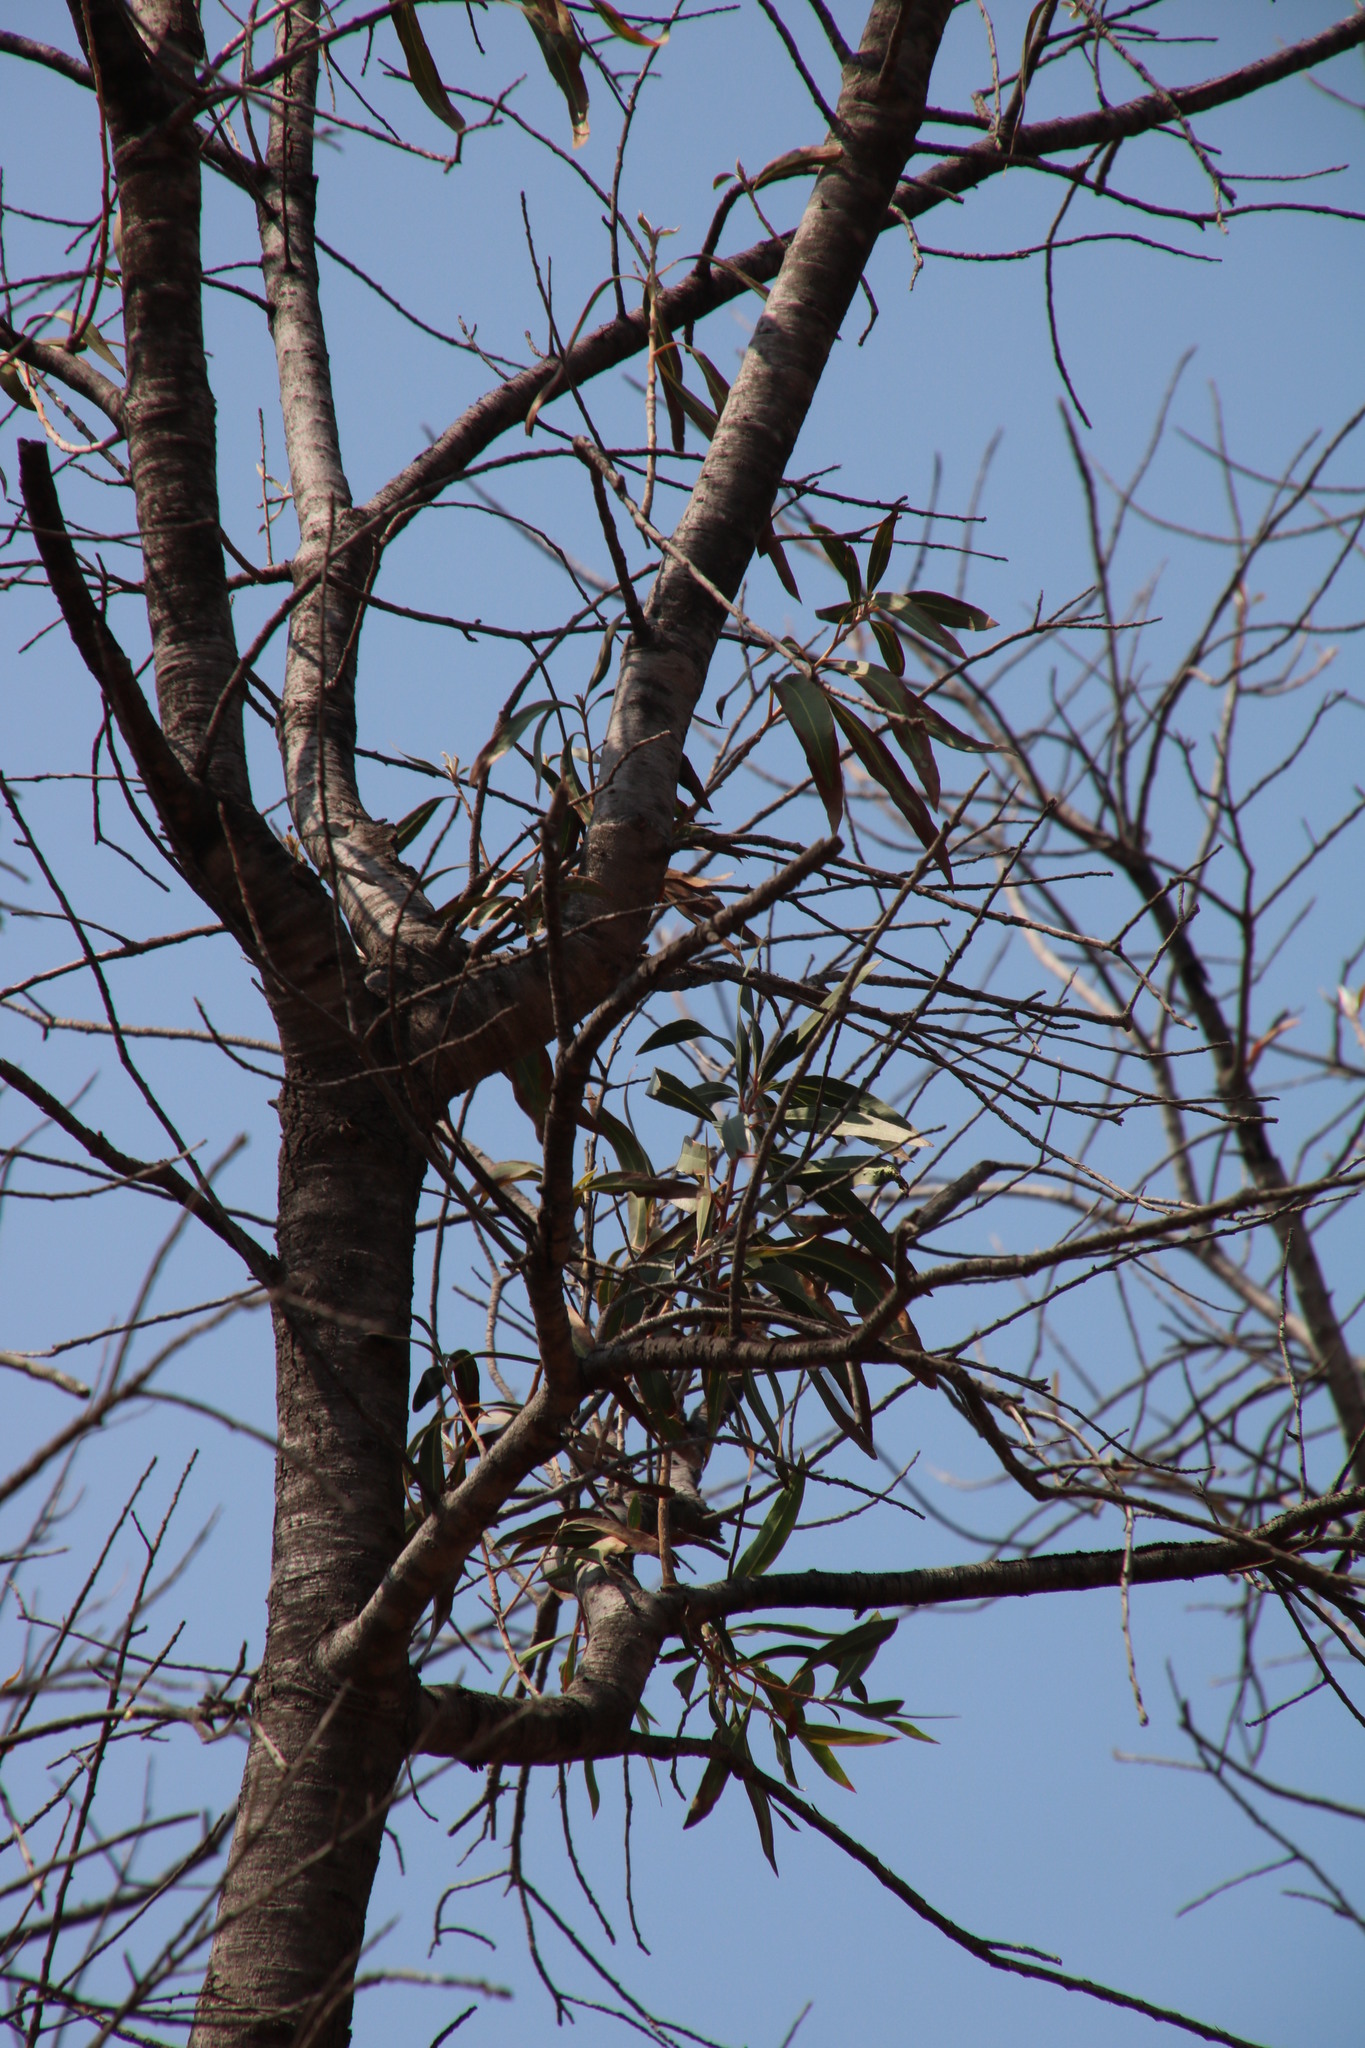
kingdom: Plantae
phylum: Tracheophyta
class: Magnoliopsida
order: Proteales
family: Proteaceae
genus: Faurea
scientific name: Faurea saligna
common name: African bean
